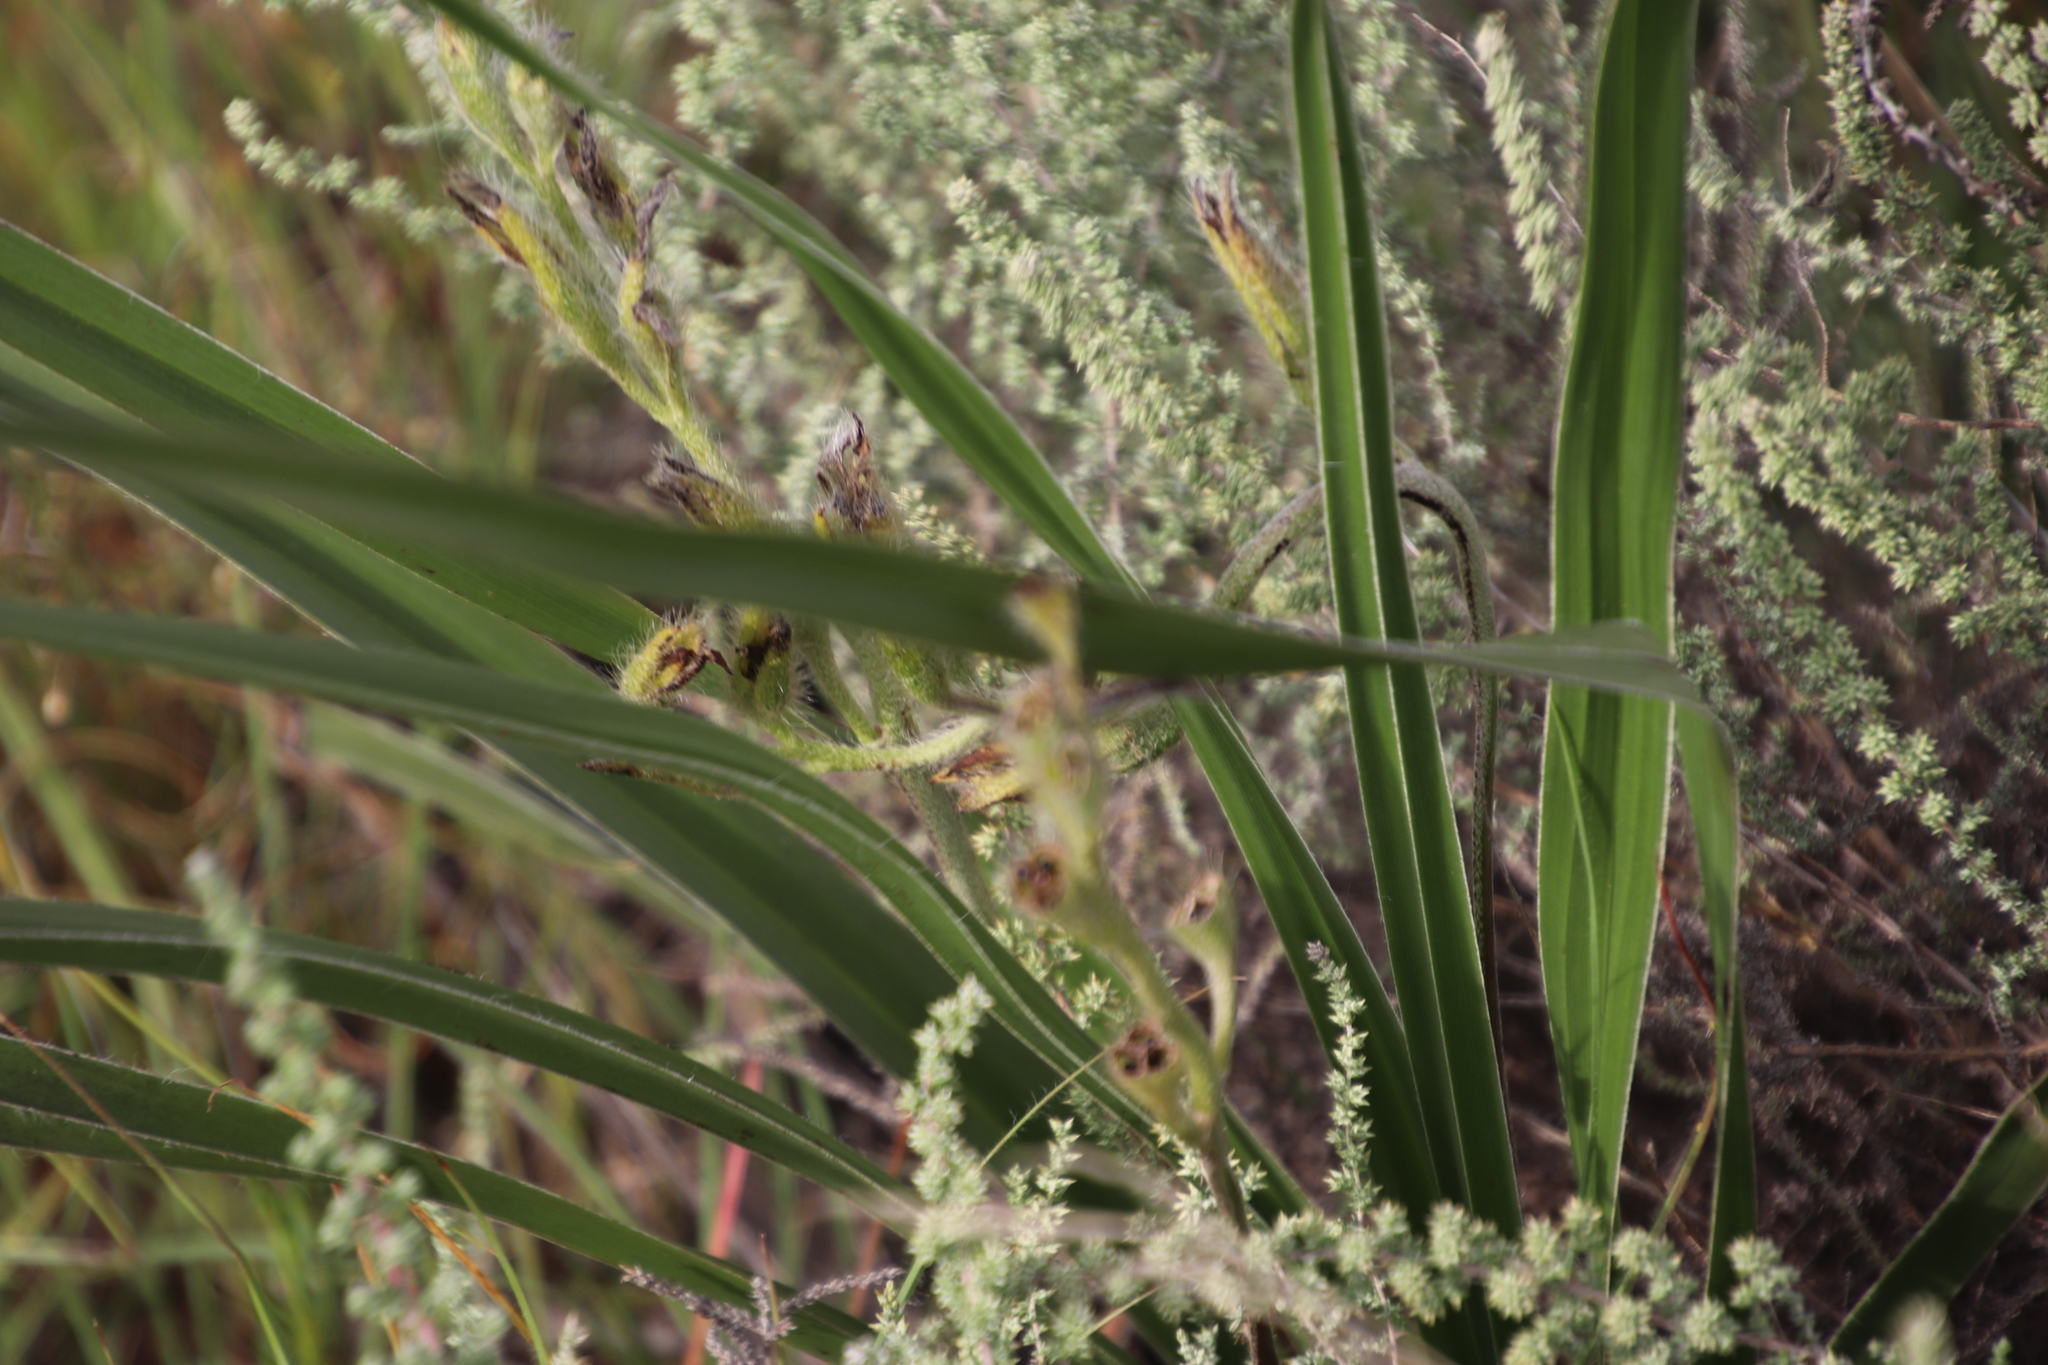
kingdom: Plantae
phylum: Tracheophyta
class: Liliopsida
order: Asparagales
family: Hypoxidaceae
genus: Hypoxis
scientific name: Hypoxis obtusa
